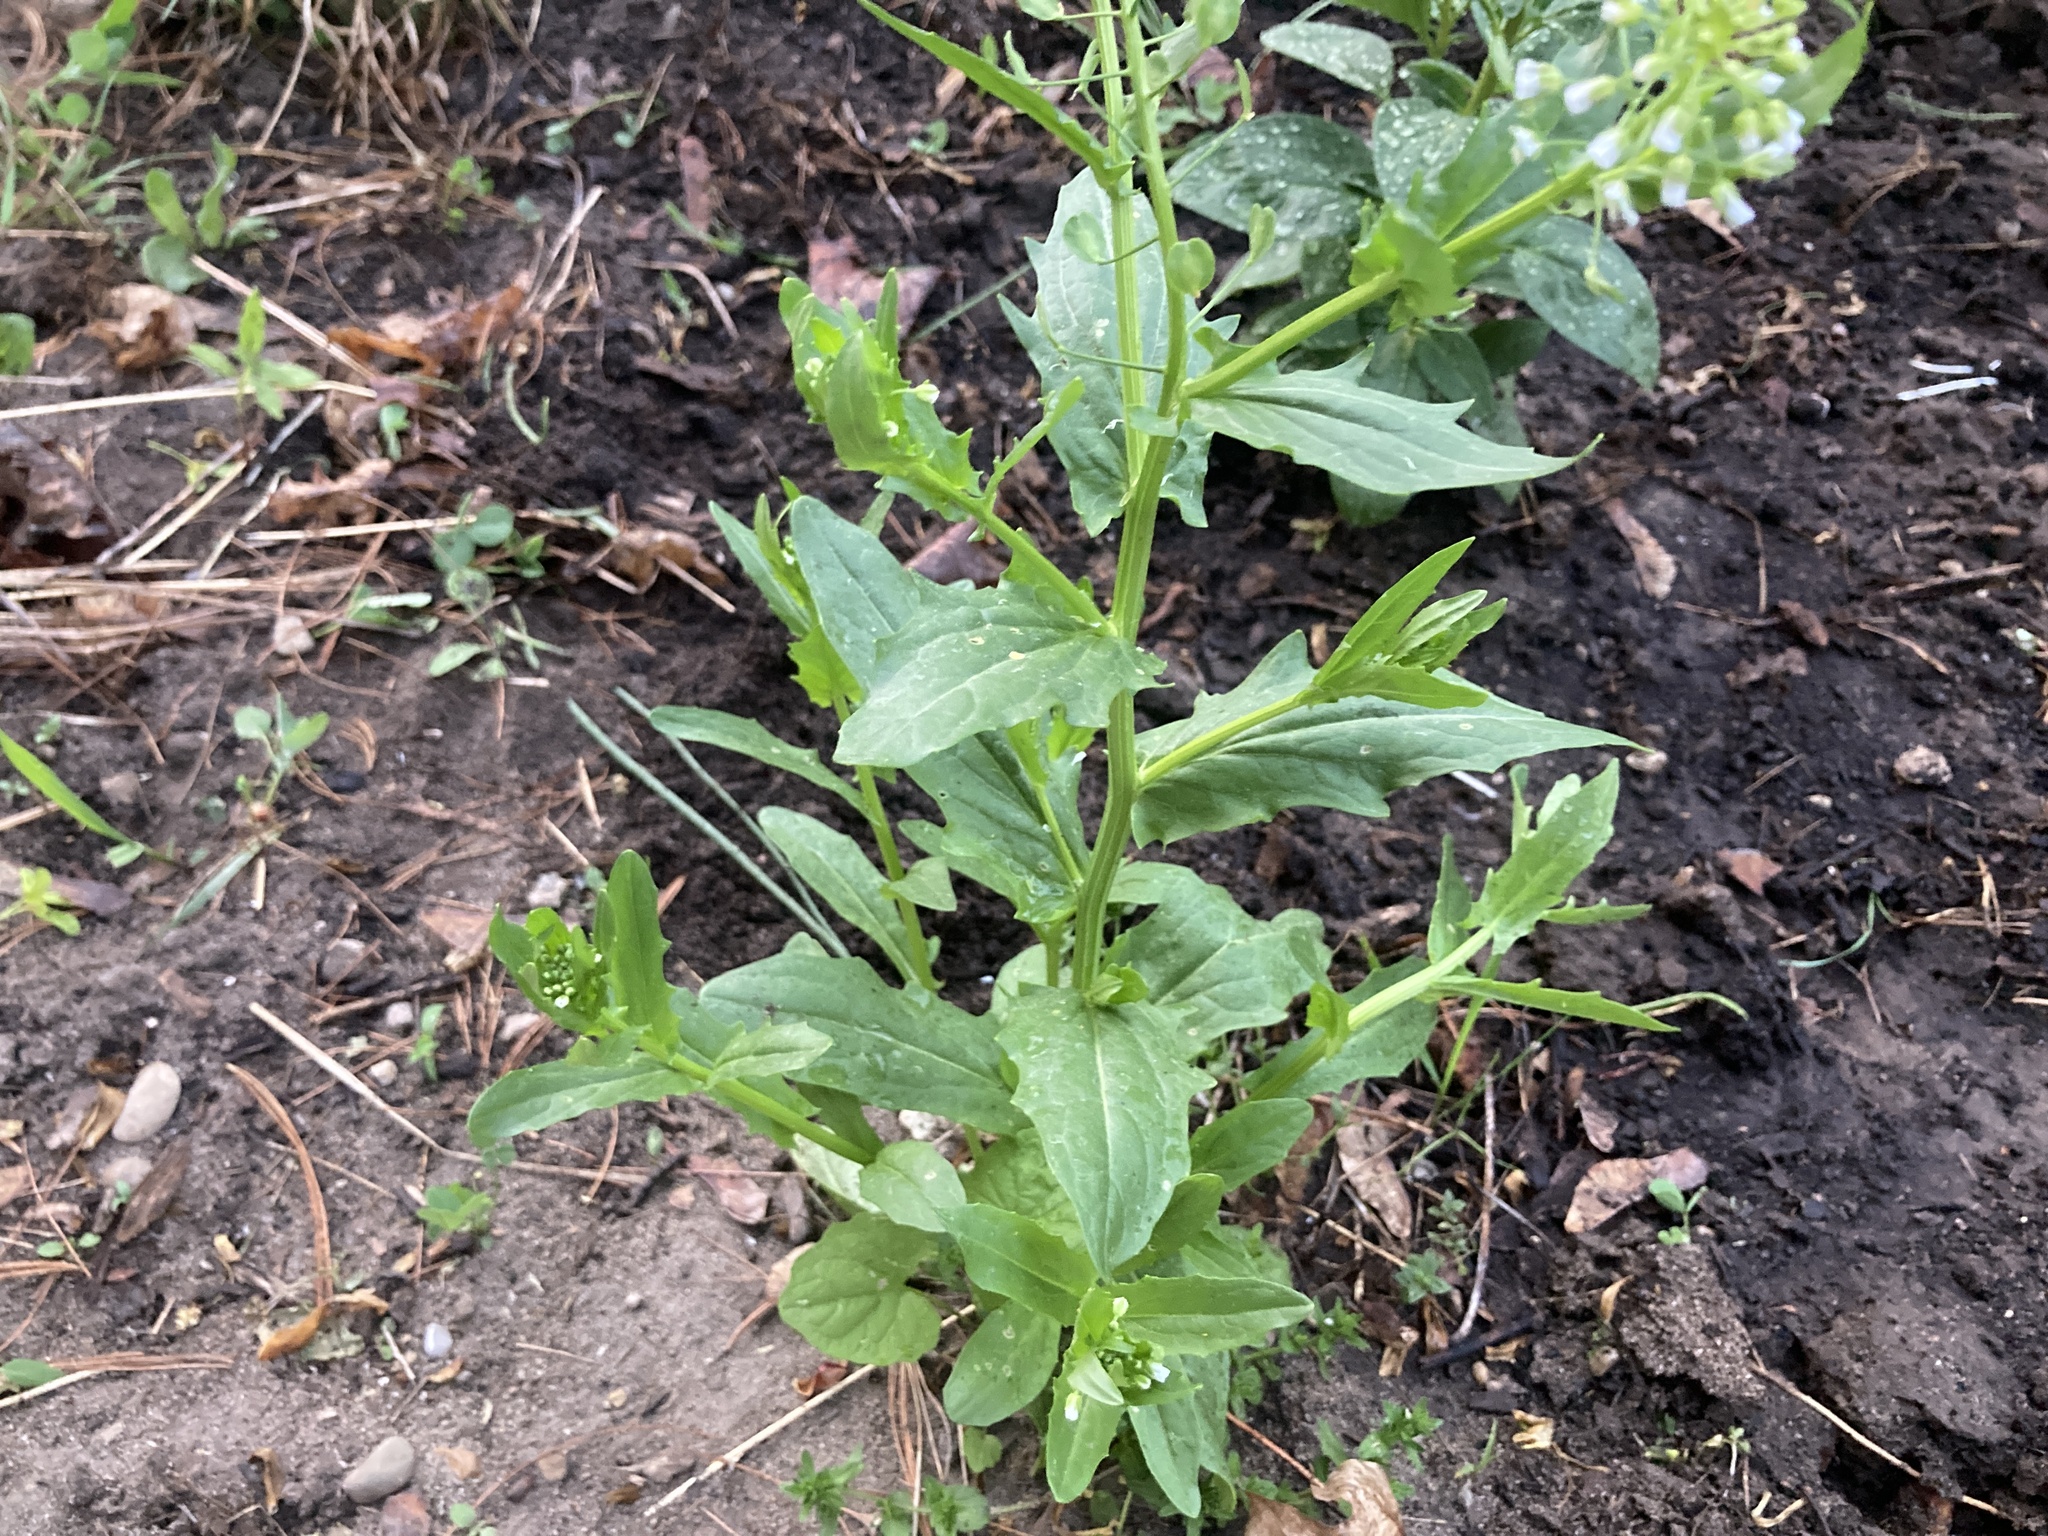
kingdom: Plantae
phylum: Tracheophyta
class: Magnoliopsida
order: Brassicales
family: Brassicaceae
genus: Thlaspi
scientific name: Thlaspi arvense
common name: Field pennycress
